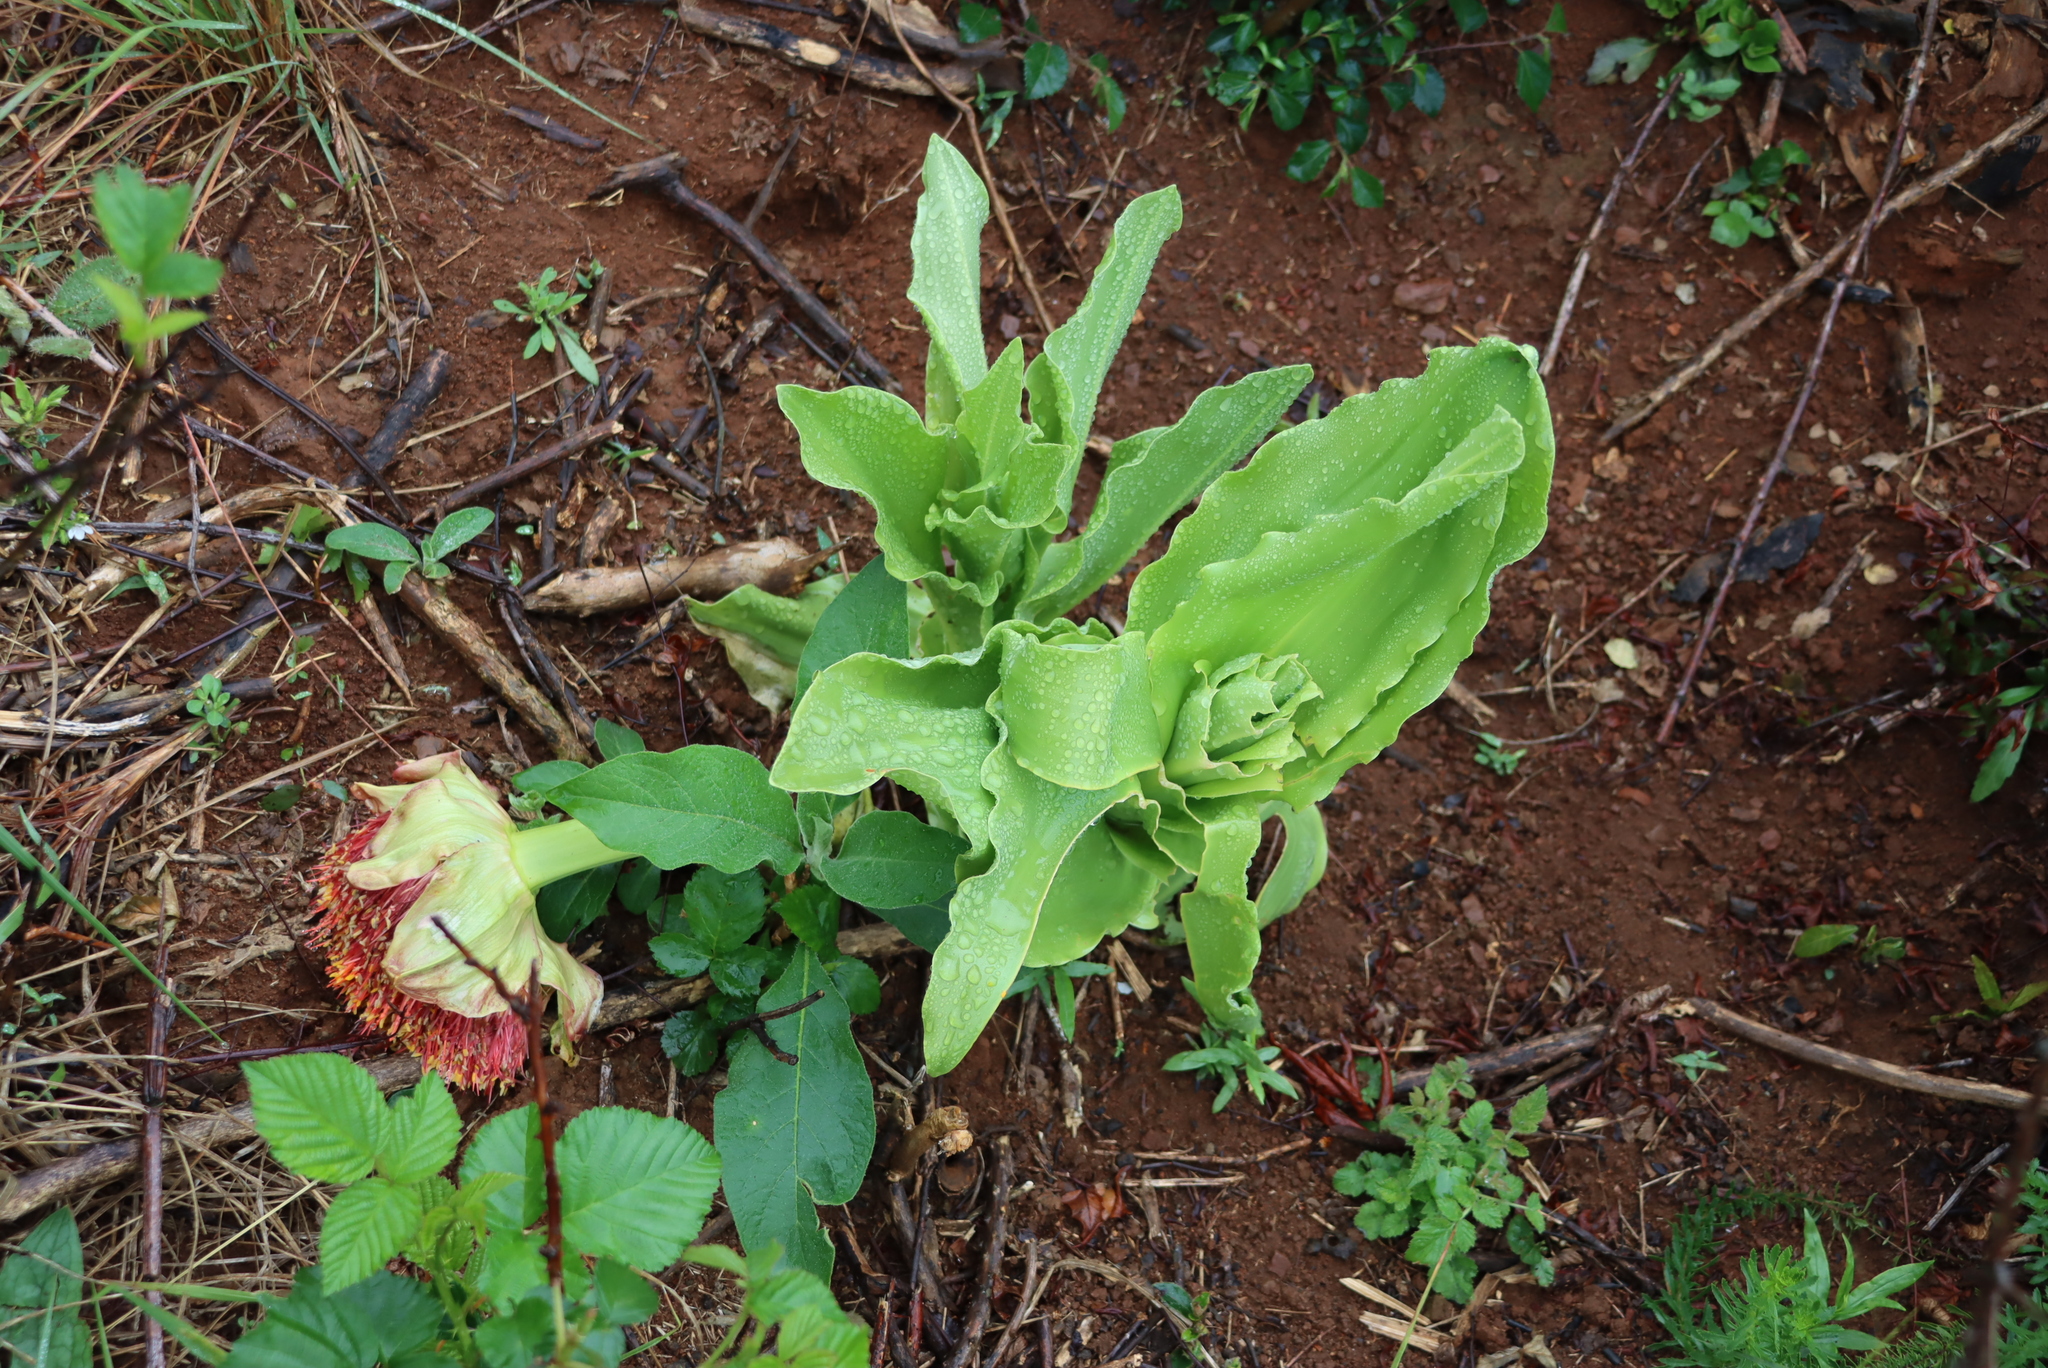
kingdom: Plantae
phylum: Tracheophyta
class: Liliopsida
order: Asparagales
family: Amaryllidaceae
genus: Scadoxus
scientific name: Scadoxus puniceus
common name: Royal-paintbrush
